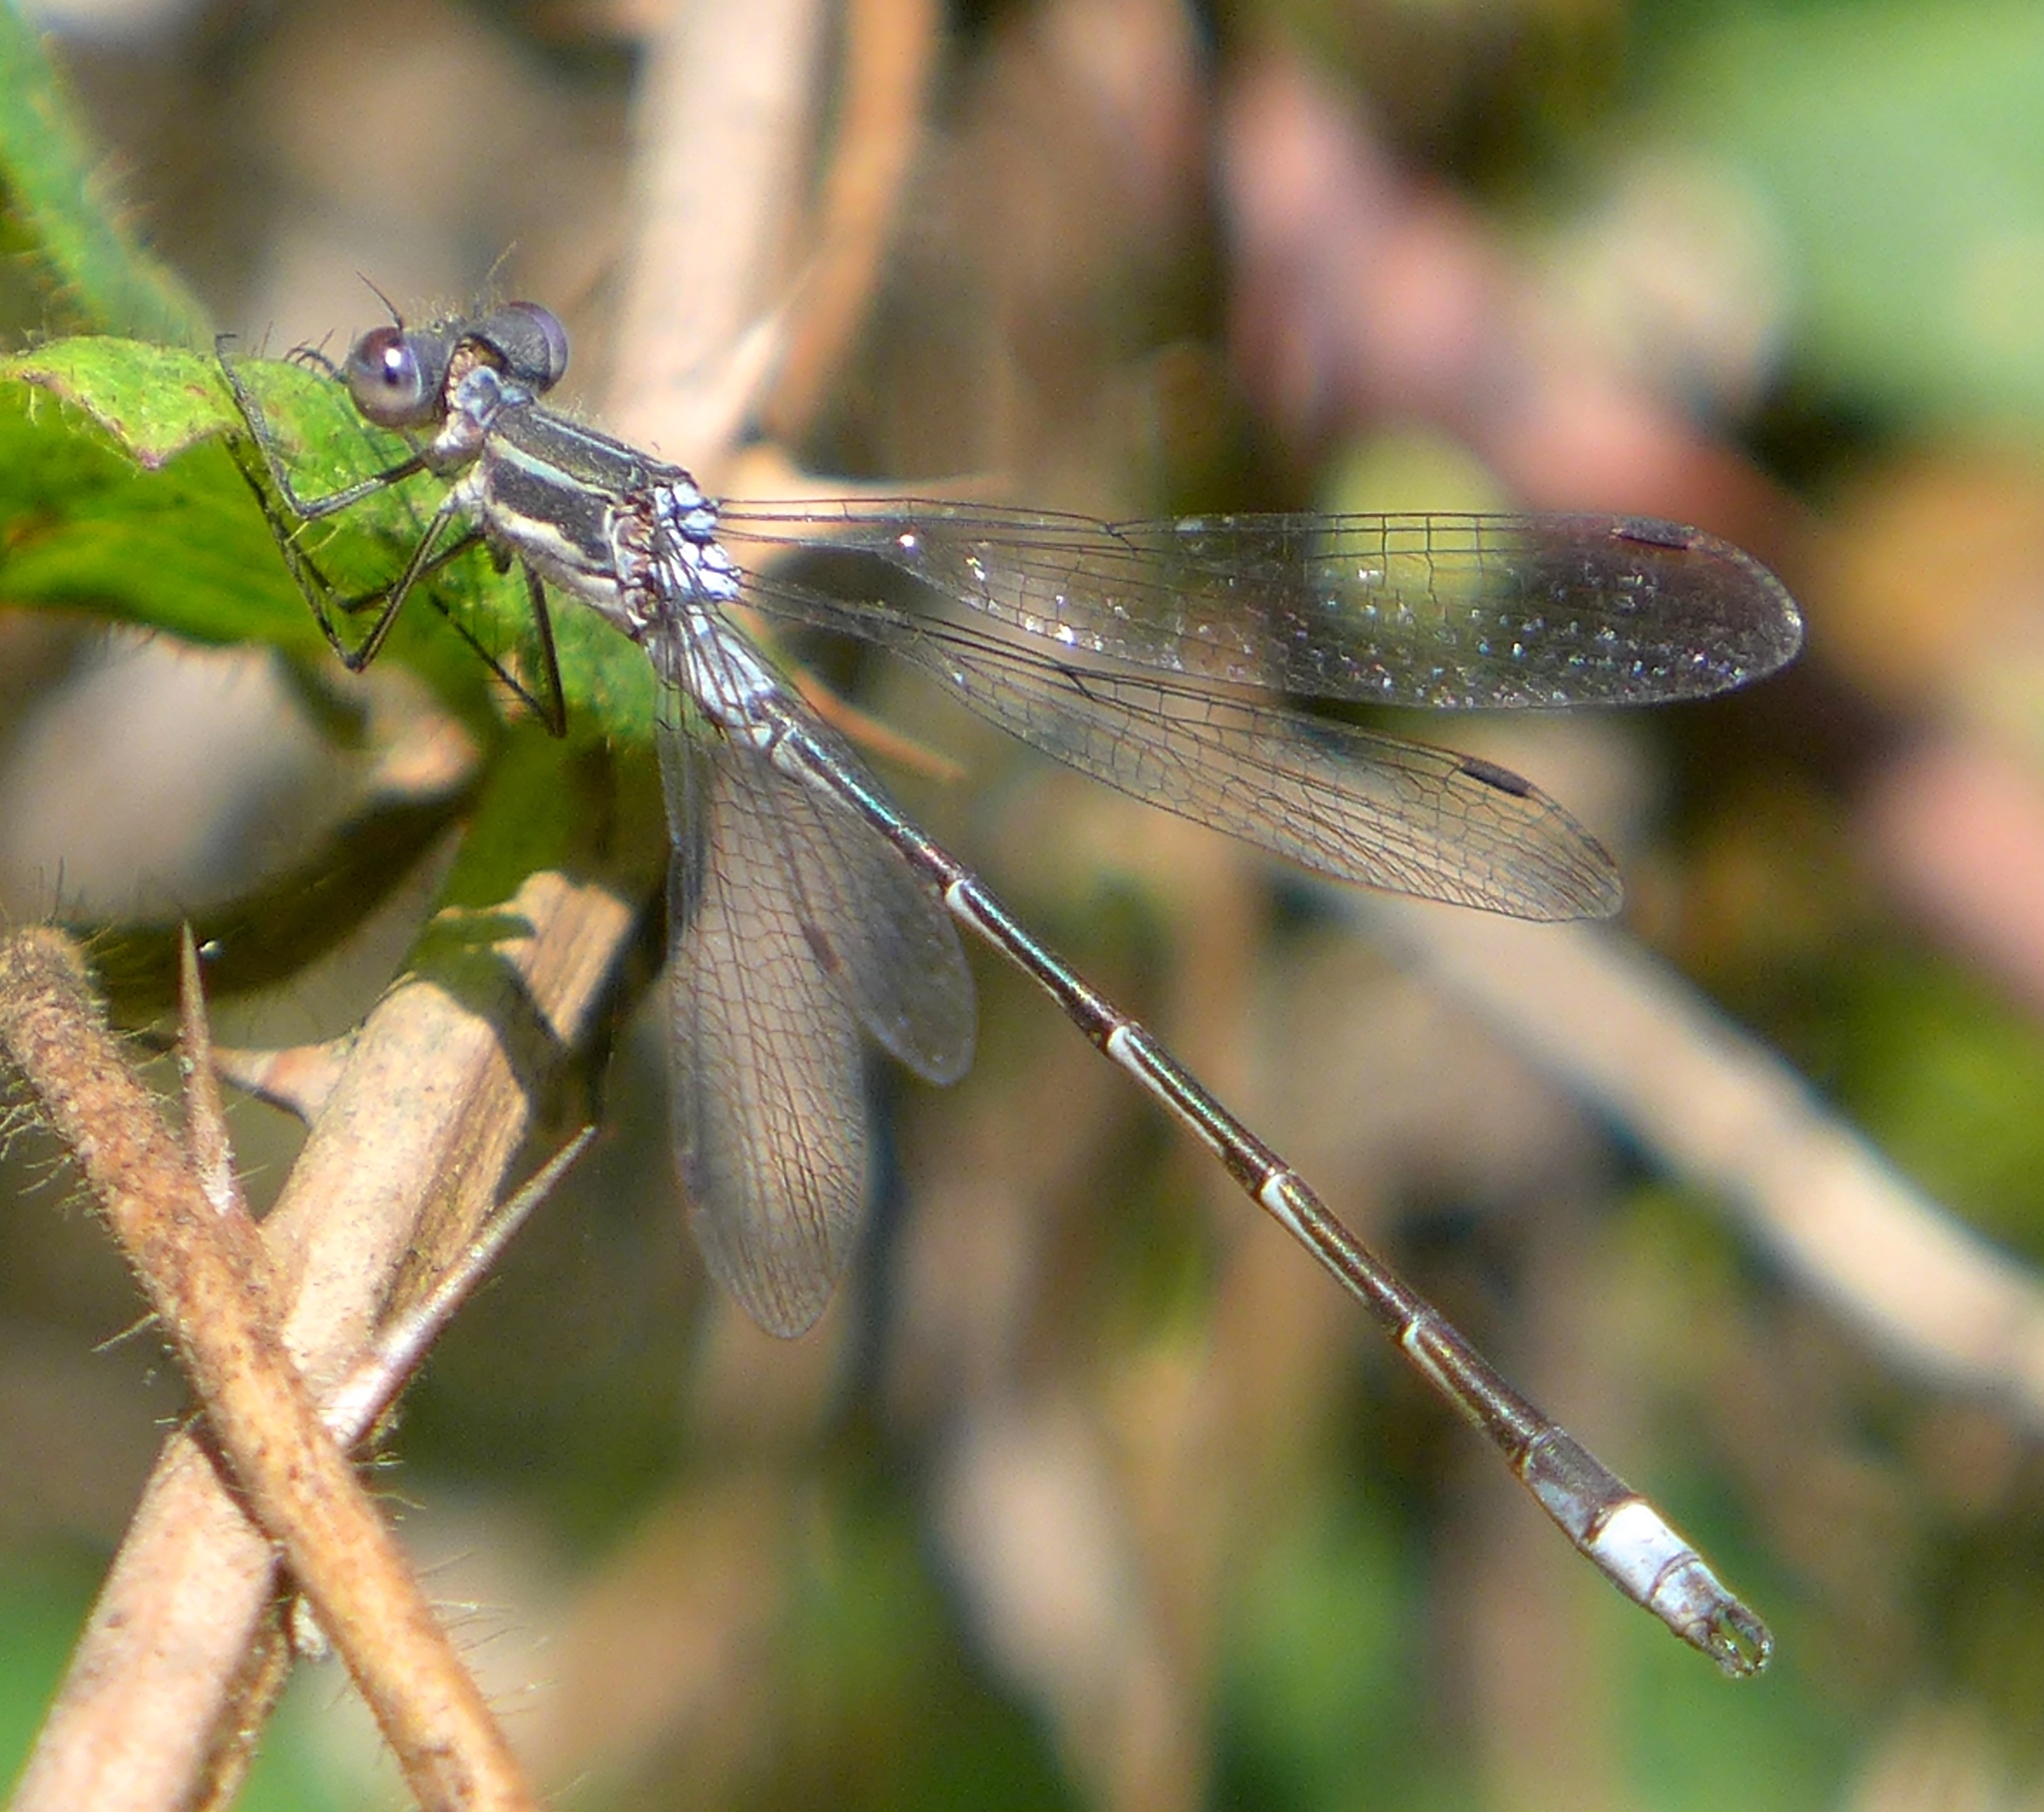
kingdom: Animalia
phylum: Arthropoda
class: Insecta
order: Odonata
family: Lestidae
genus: Lestes
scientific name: Lestes disjunctus
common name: Northern spreadwing
